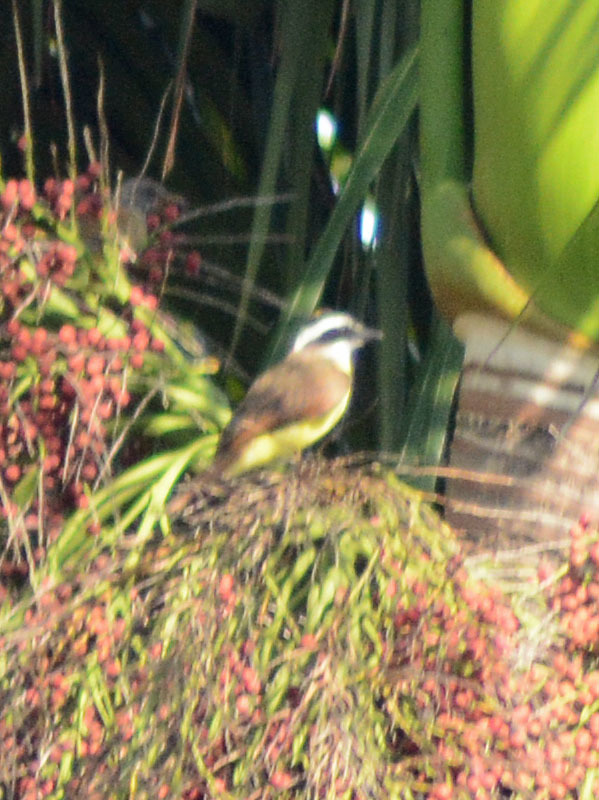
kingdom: Animalia
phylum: Chordata
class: Aves
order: Passeriformes
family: Tyrannidae
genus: Pitangus
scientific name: Pitangus sulphuratus
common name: Great kiskadee
